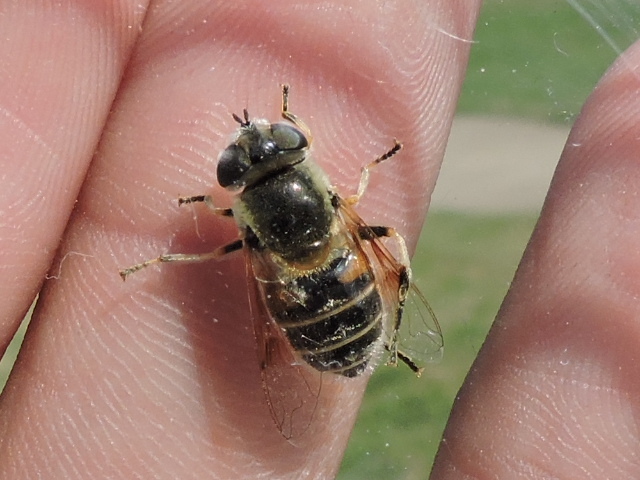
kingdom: Animalia
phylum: Arthropoda
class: Insecta
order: Diptera
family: Syrphidae
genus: Eristalis
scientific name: Eristalis stipator
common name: Yellow-shouldered drone fly
